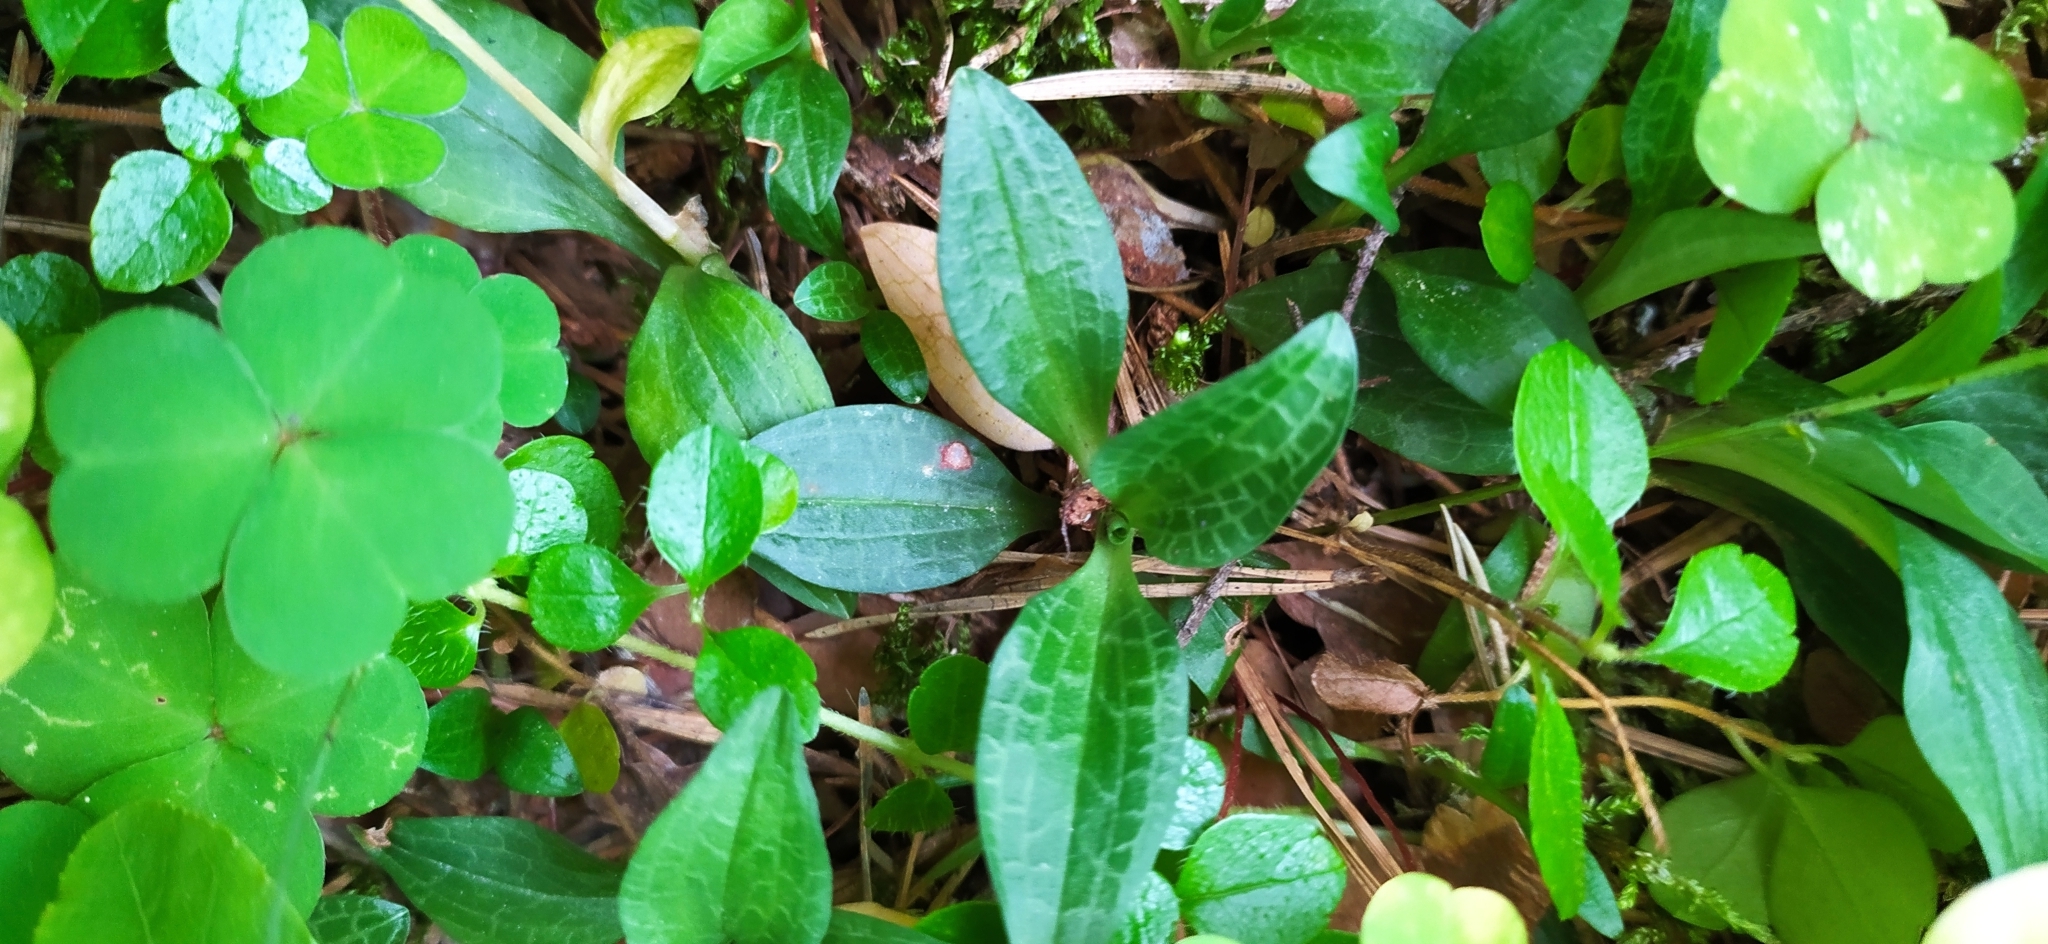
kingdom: Plantae
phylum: Tracheophyta
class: Liliopsida
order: Asparagales
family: Orchidaceae
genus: Goodyera
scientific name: Goodyera repens
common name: Creeping lady's-tresses
